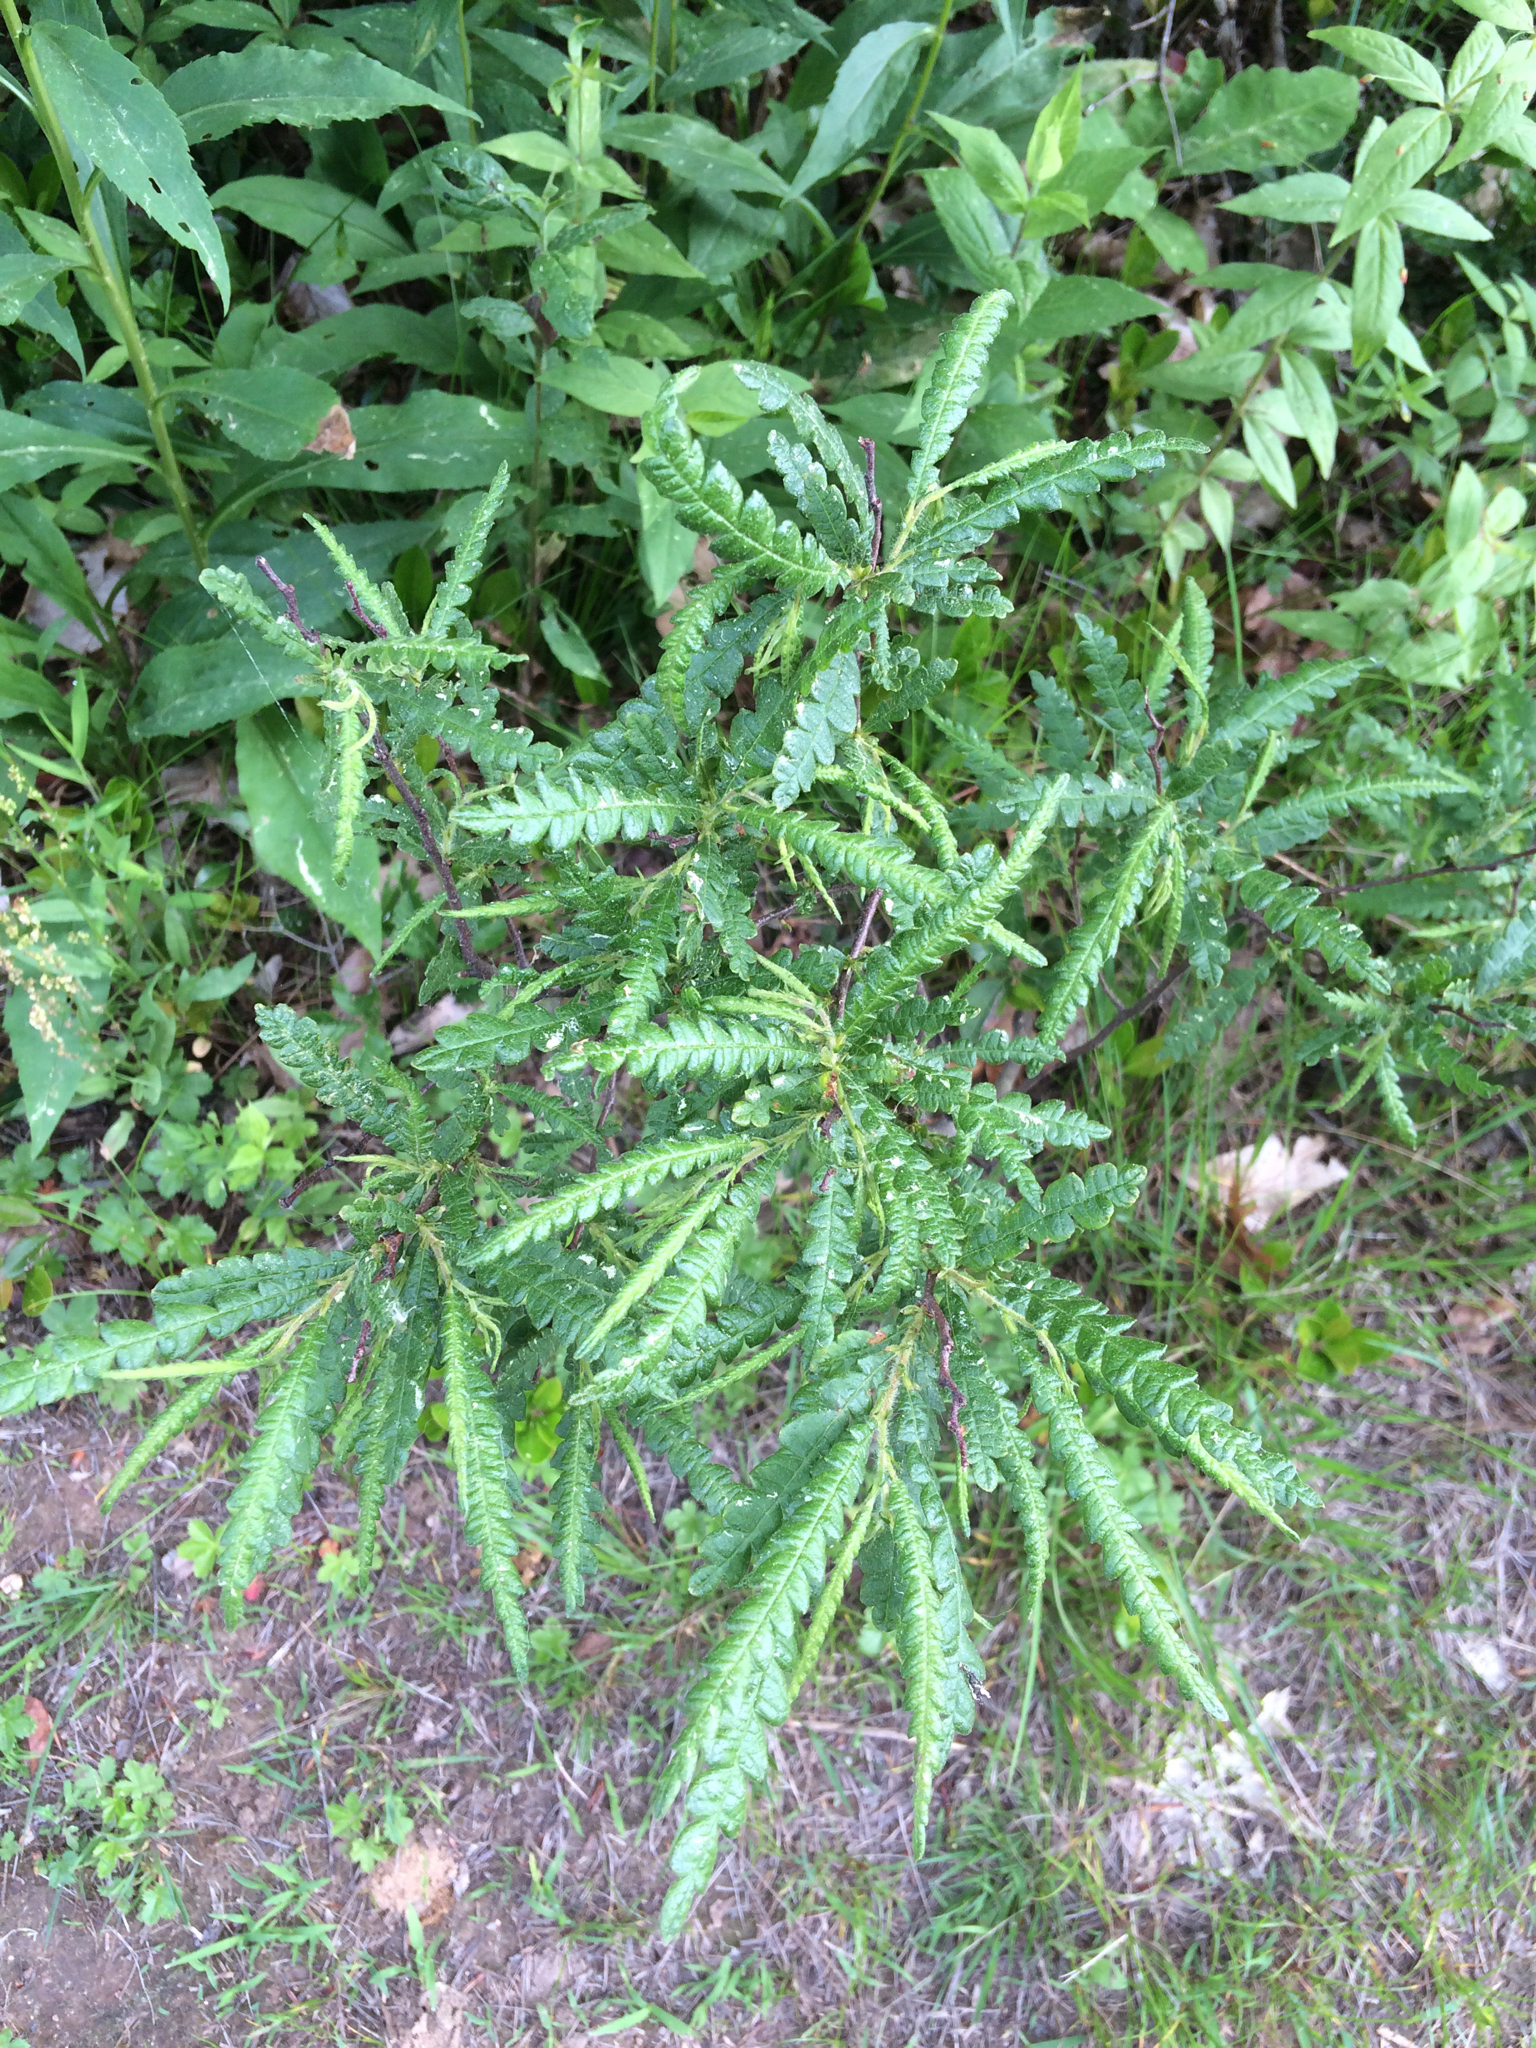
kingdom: Plantae
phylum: Tracheophyta
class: Magnoliopsida
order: Fagales
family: Myricaceae
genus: Comptonia
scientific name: Comptonia peregrina
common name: Sweet-fern
